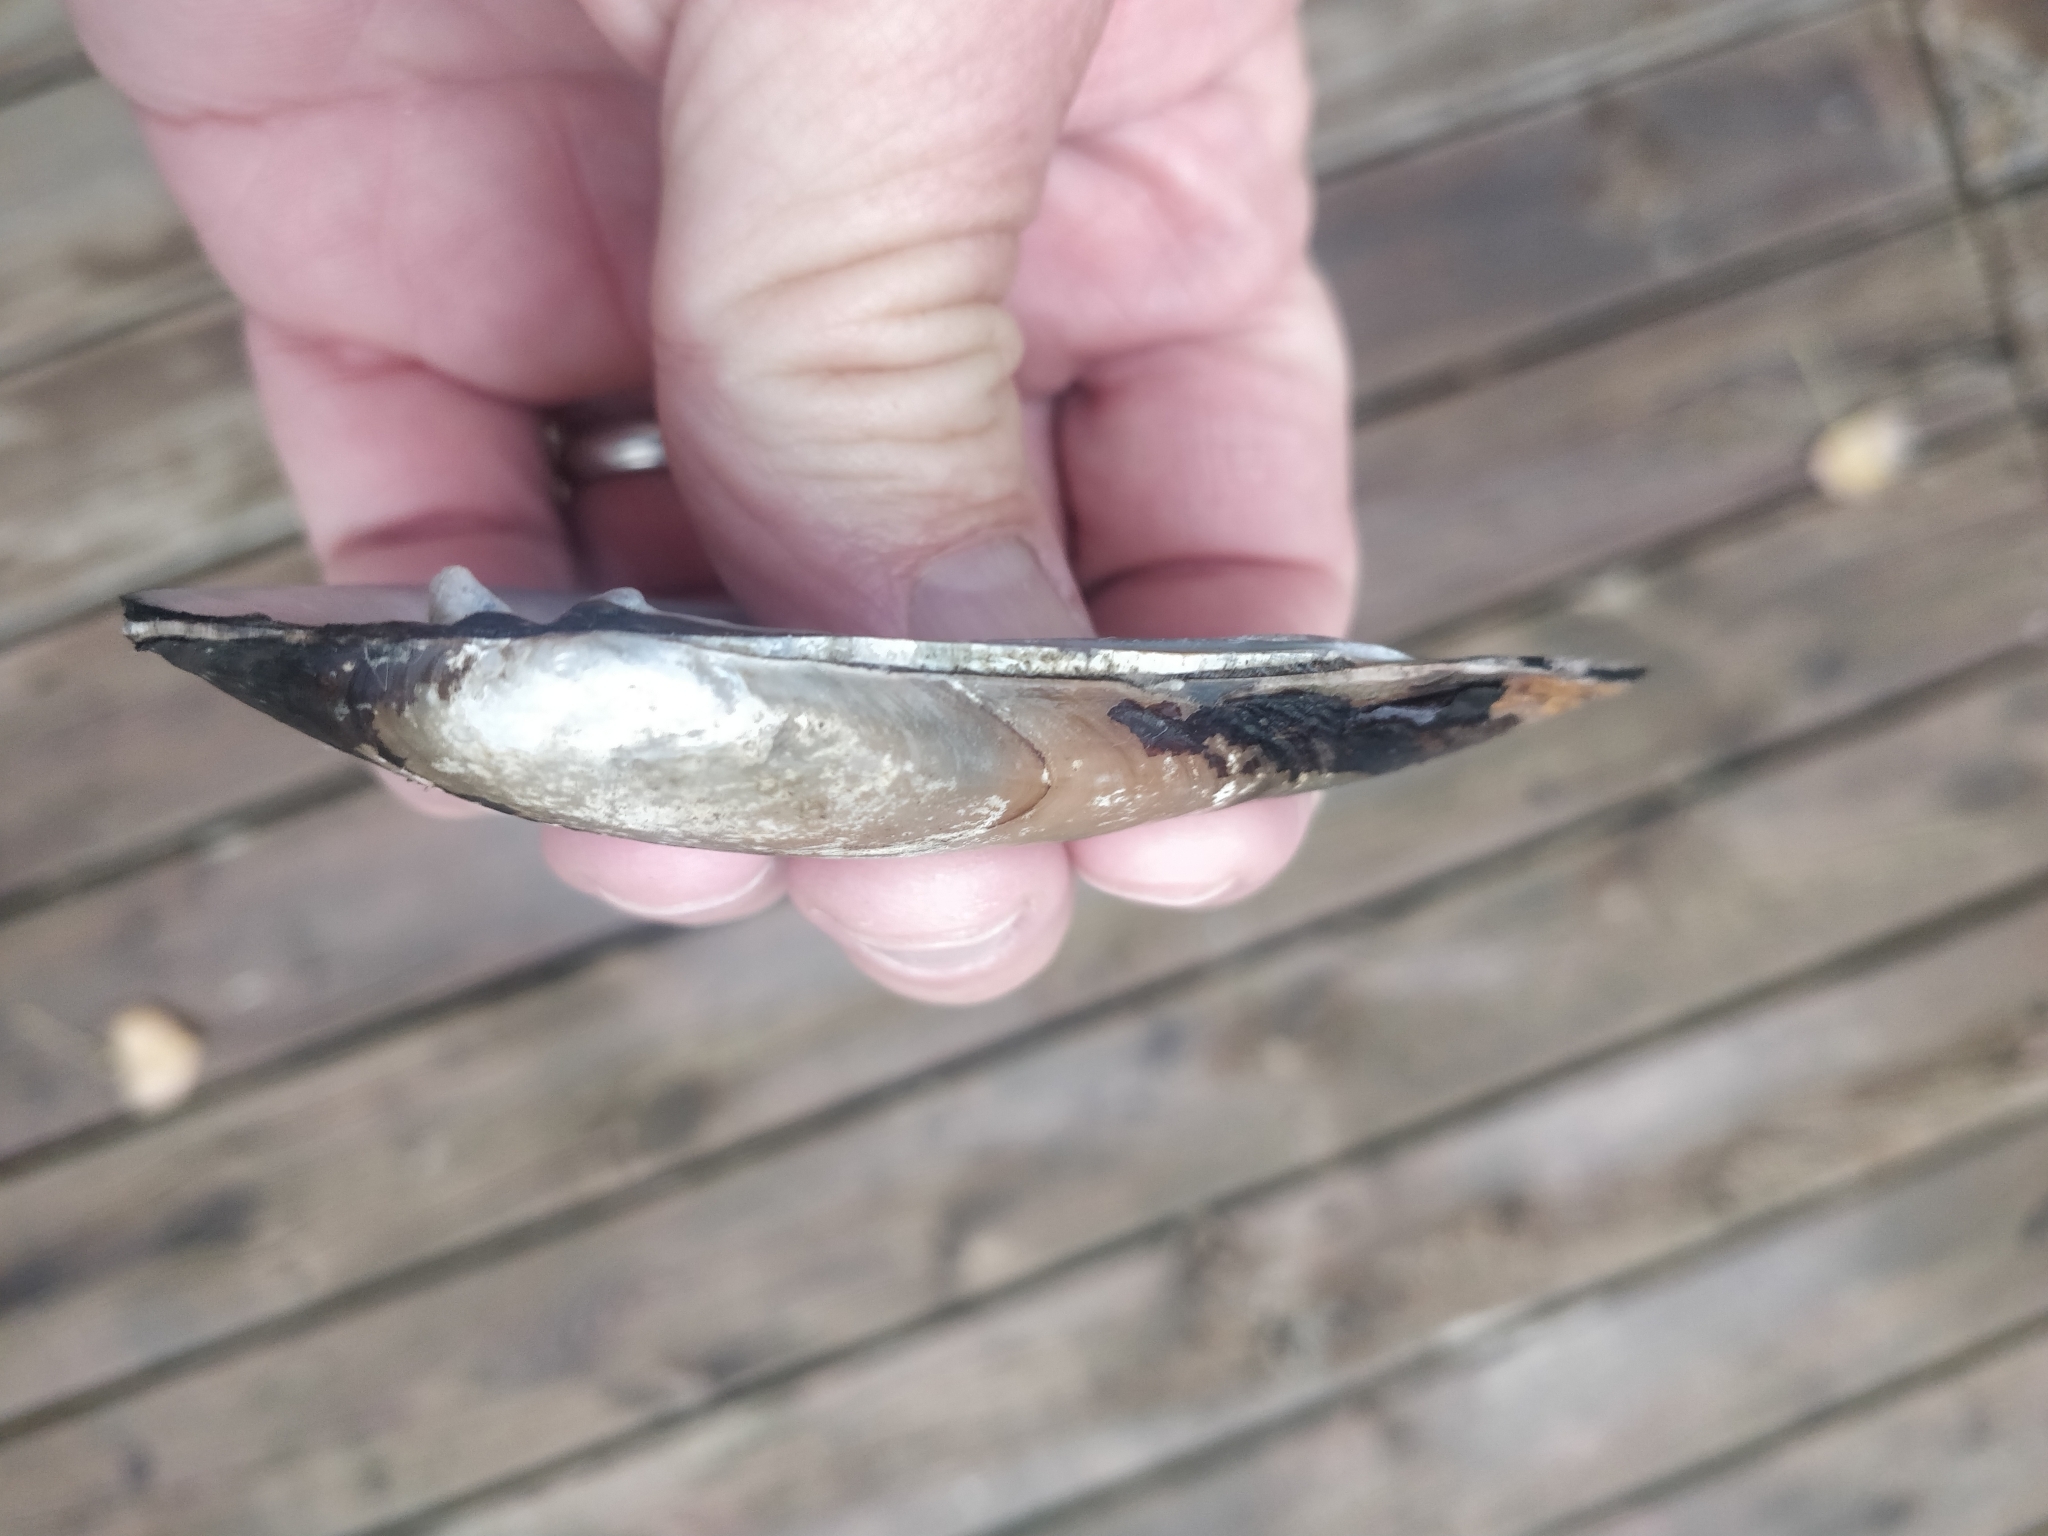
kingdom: Animalia
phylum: Mollusca
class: Bivalvia
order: Unionida
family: Unionidae
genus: Ligumia
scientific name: Ligumia recta
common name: Black sandshell
